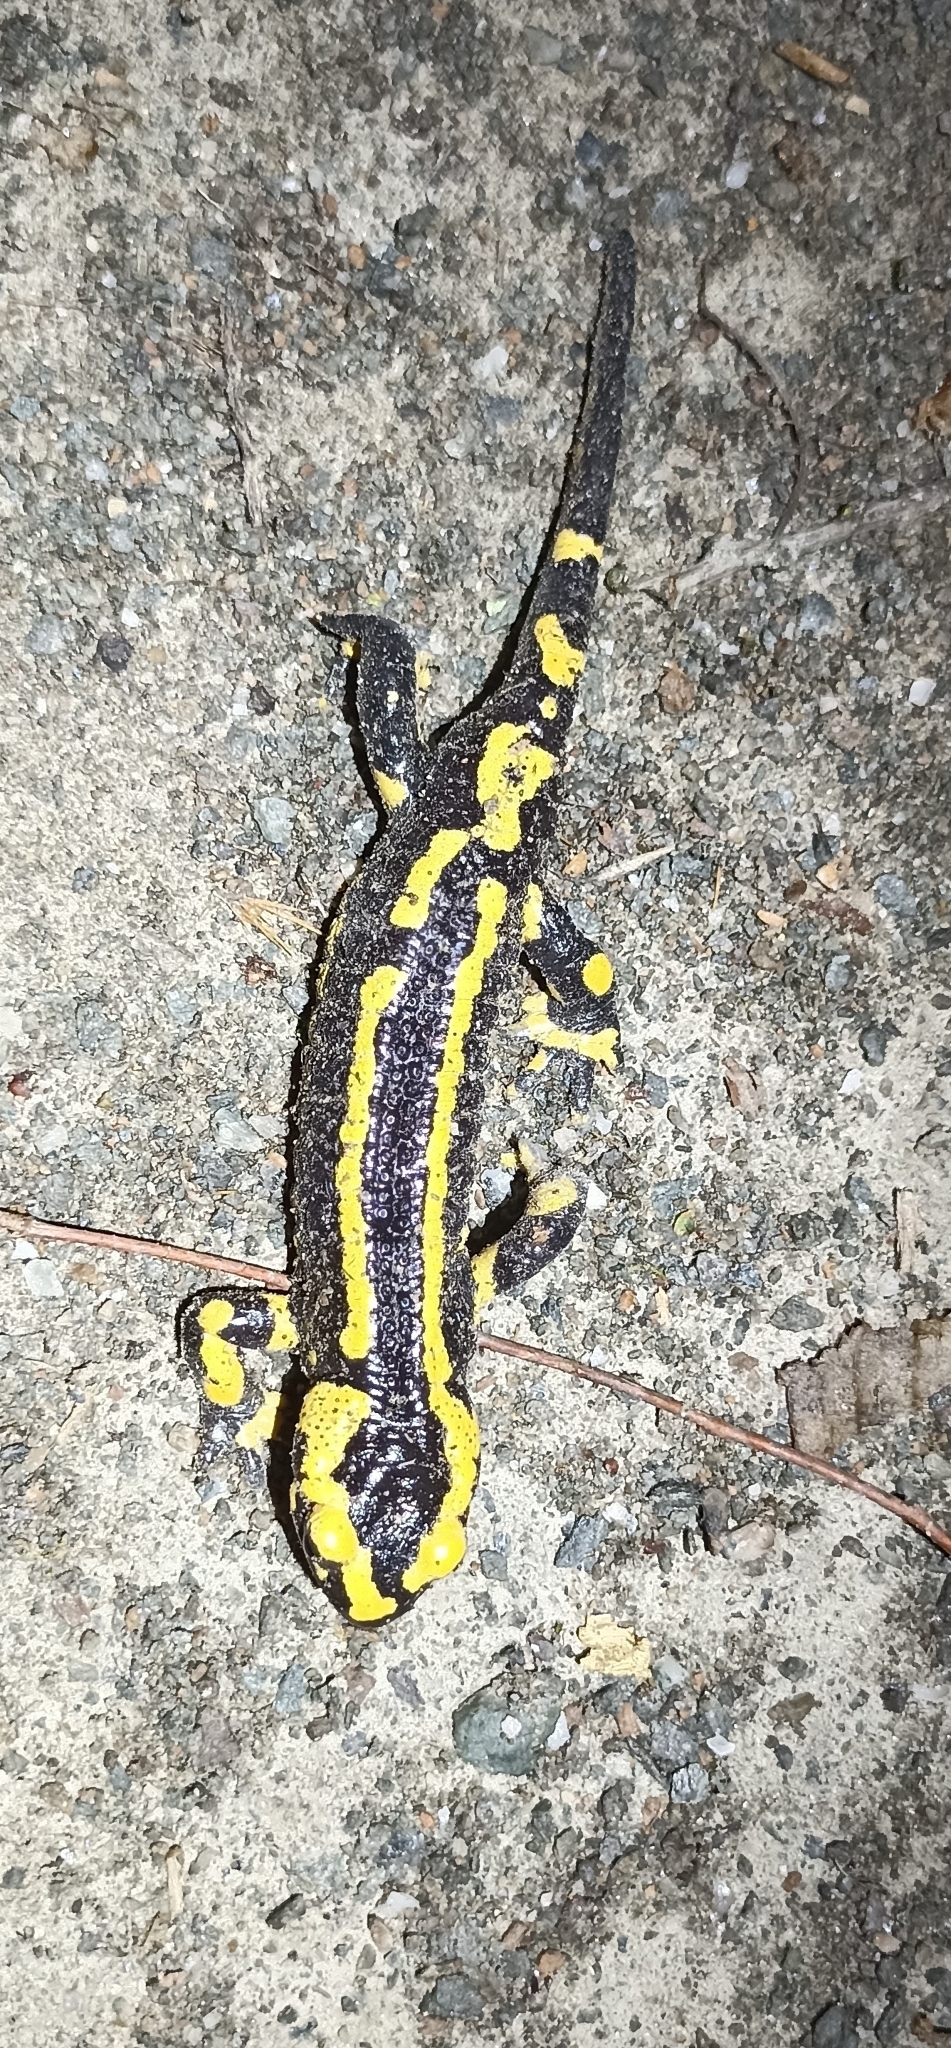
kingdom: Animalia
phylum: Chordata
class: Amphibia
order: Caudata
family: Salamandridae
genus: Salamandra
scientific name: Salamandra salamandra
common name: Fire salamander
